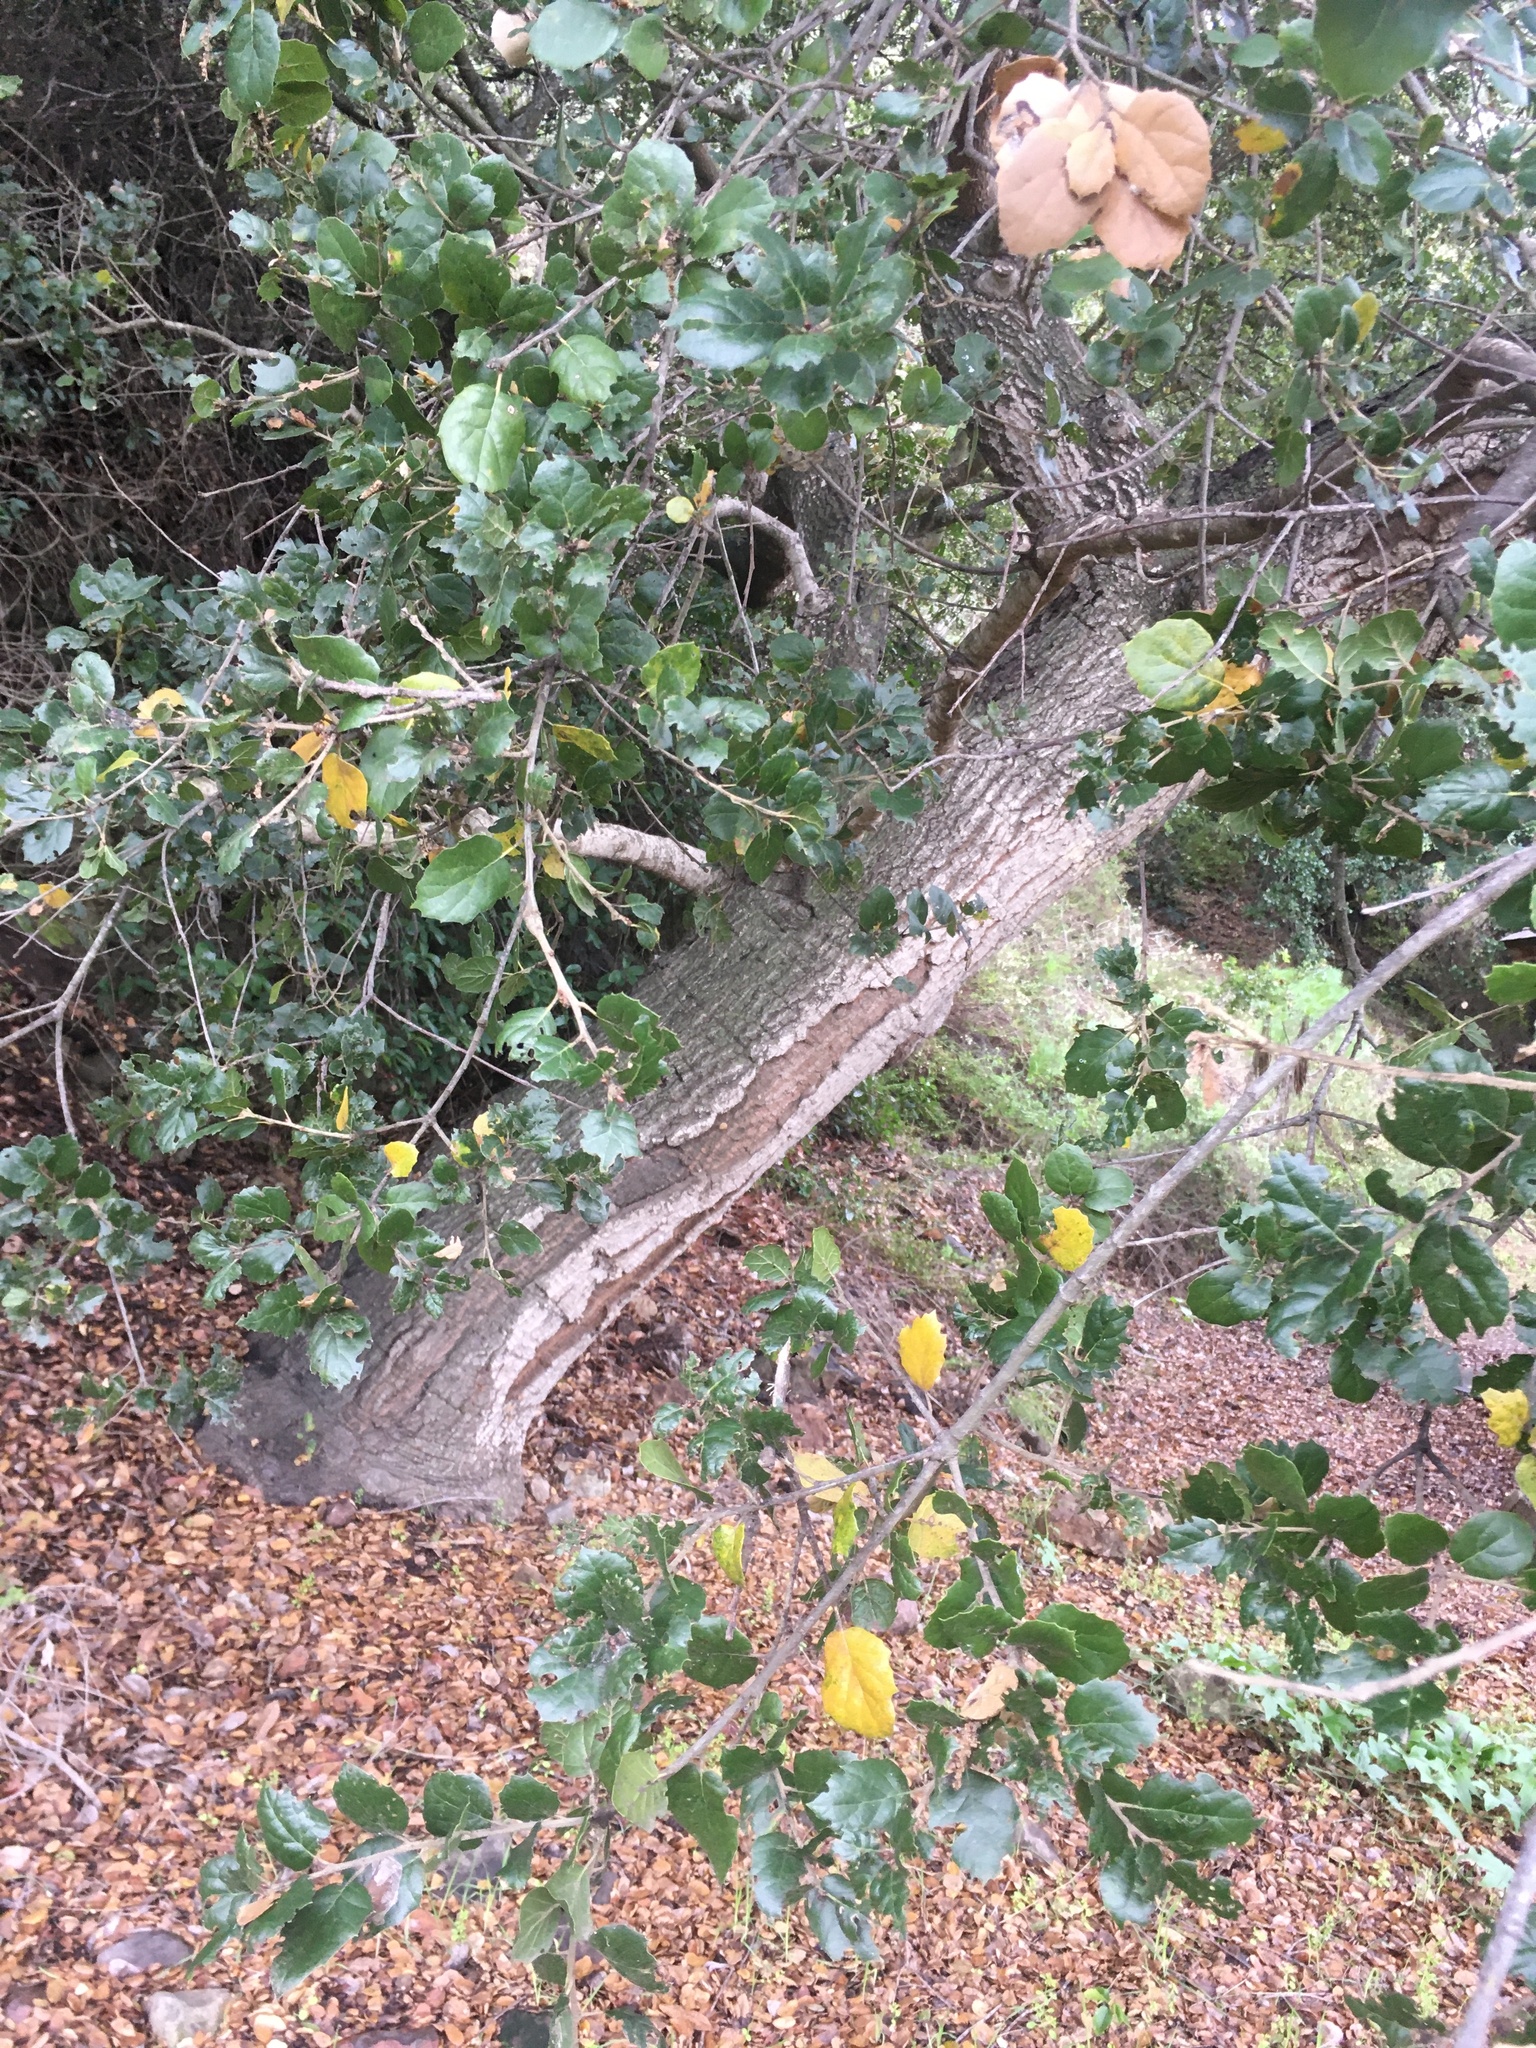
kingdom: Plantae
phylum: Tracheophyta
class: Magnoliopsida
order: Fagales
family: Fagaceae
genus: Quercus
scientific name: Quercus agrifolia
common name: California live oak
